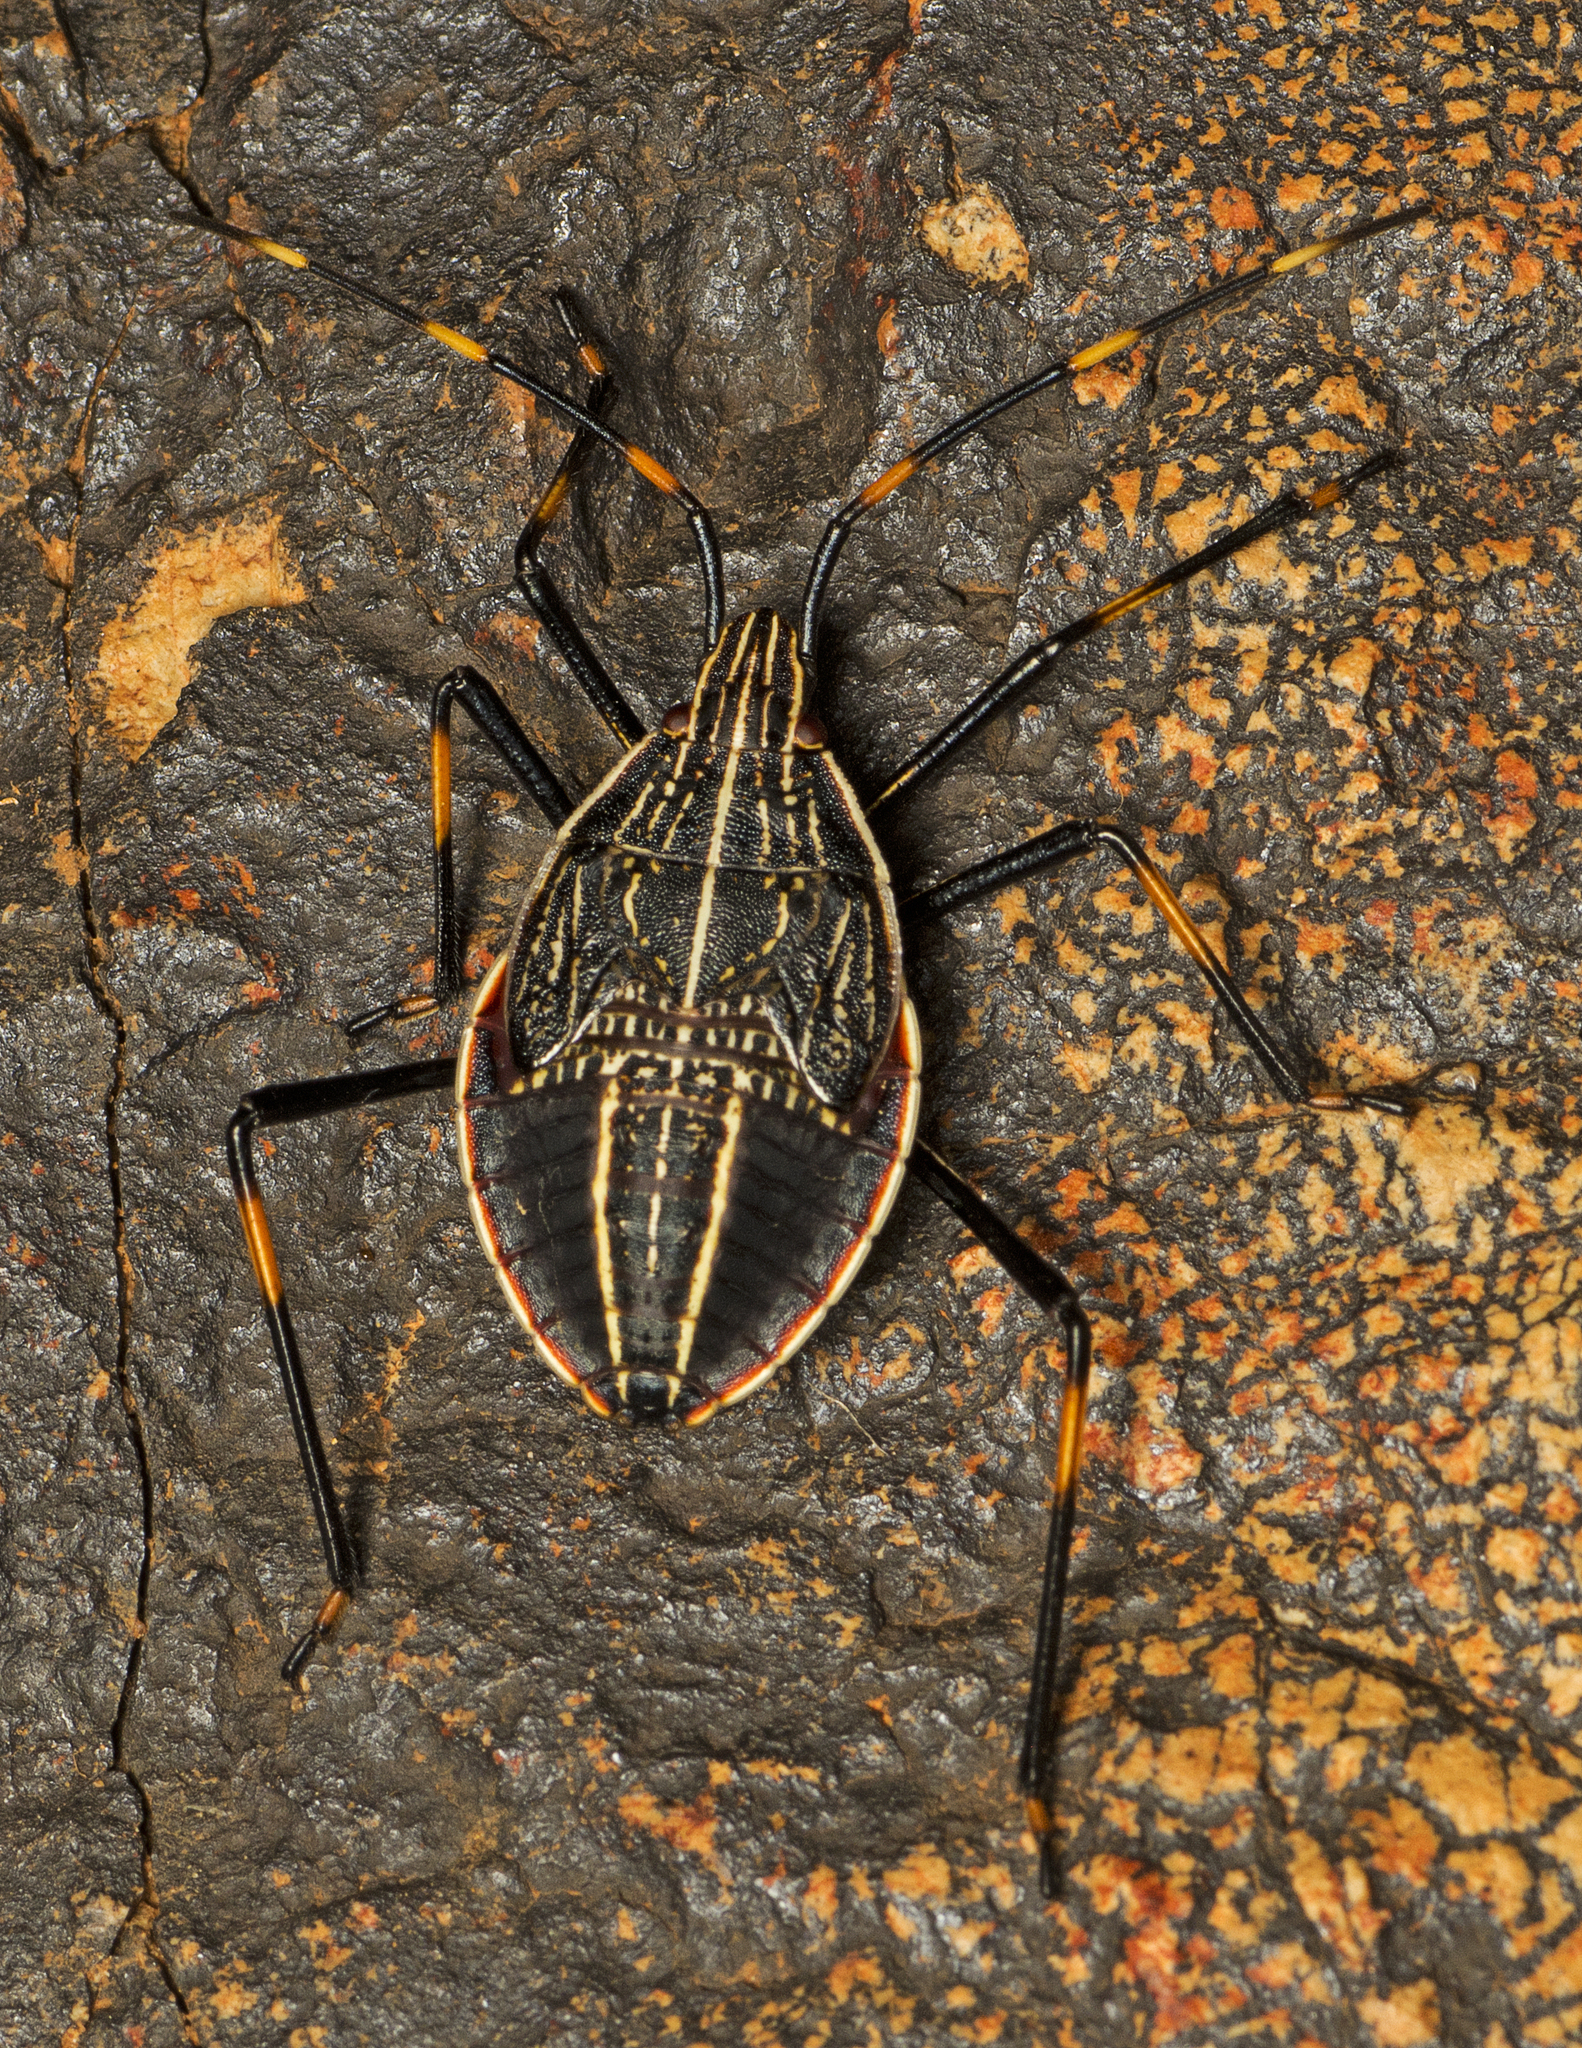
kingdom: Animalia
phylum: Arthropoda
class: Insecta
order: Hemiptera
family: Pentatomidae
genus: Poecilometis
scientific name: Poecilometis
